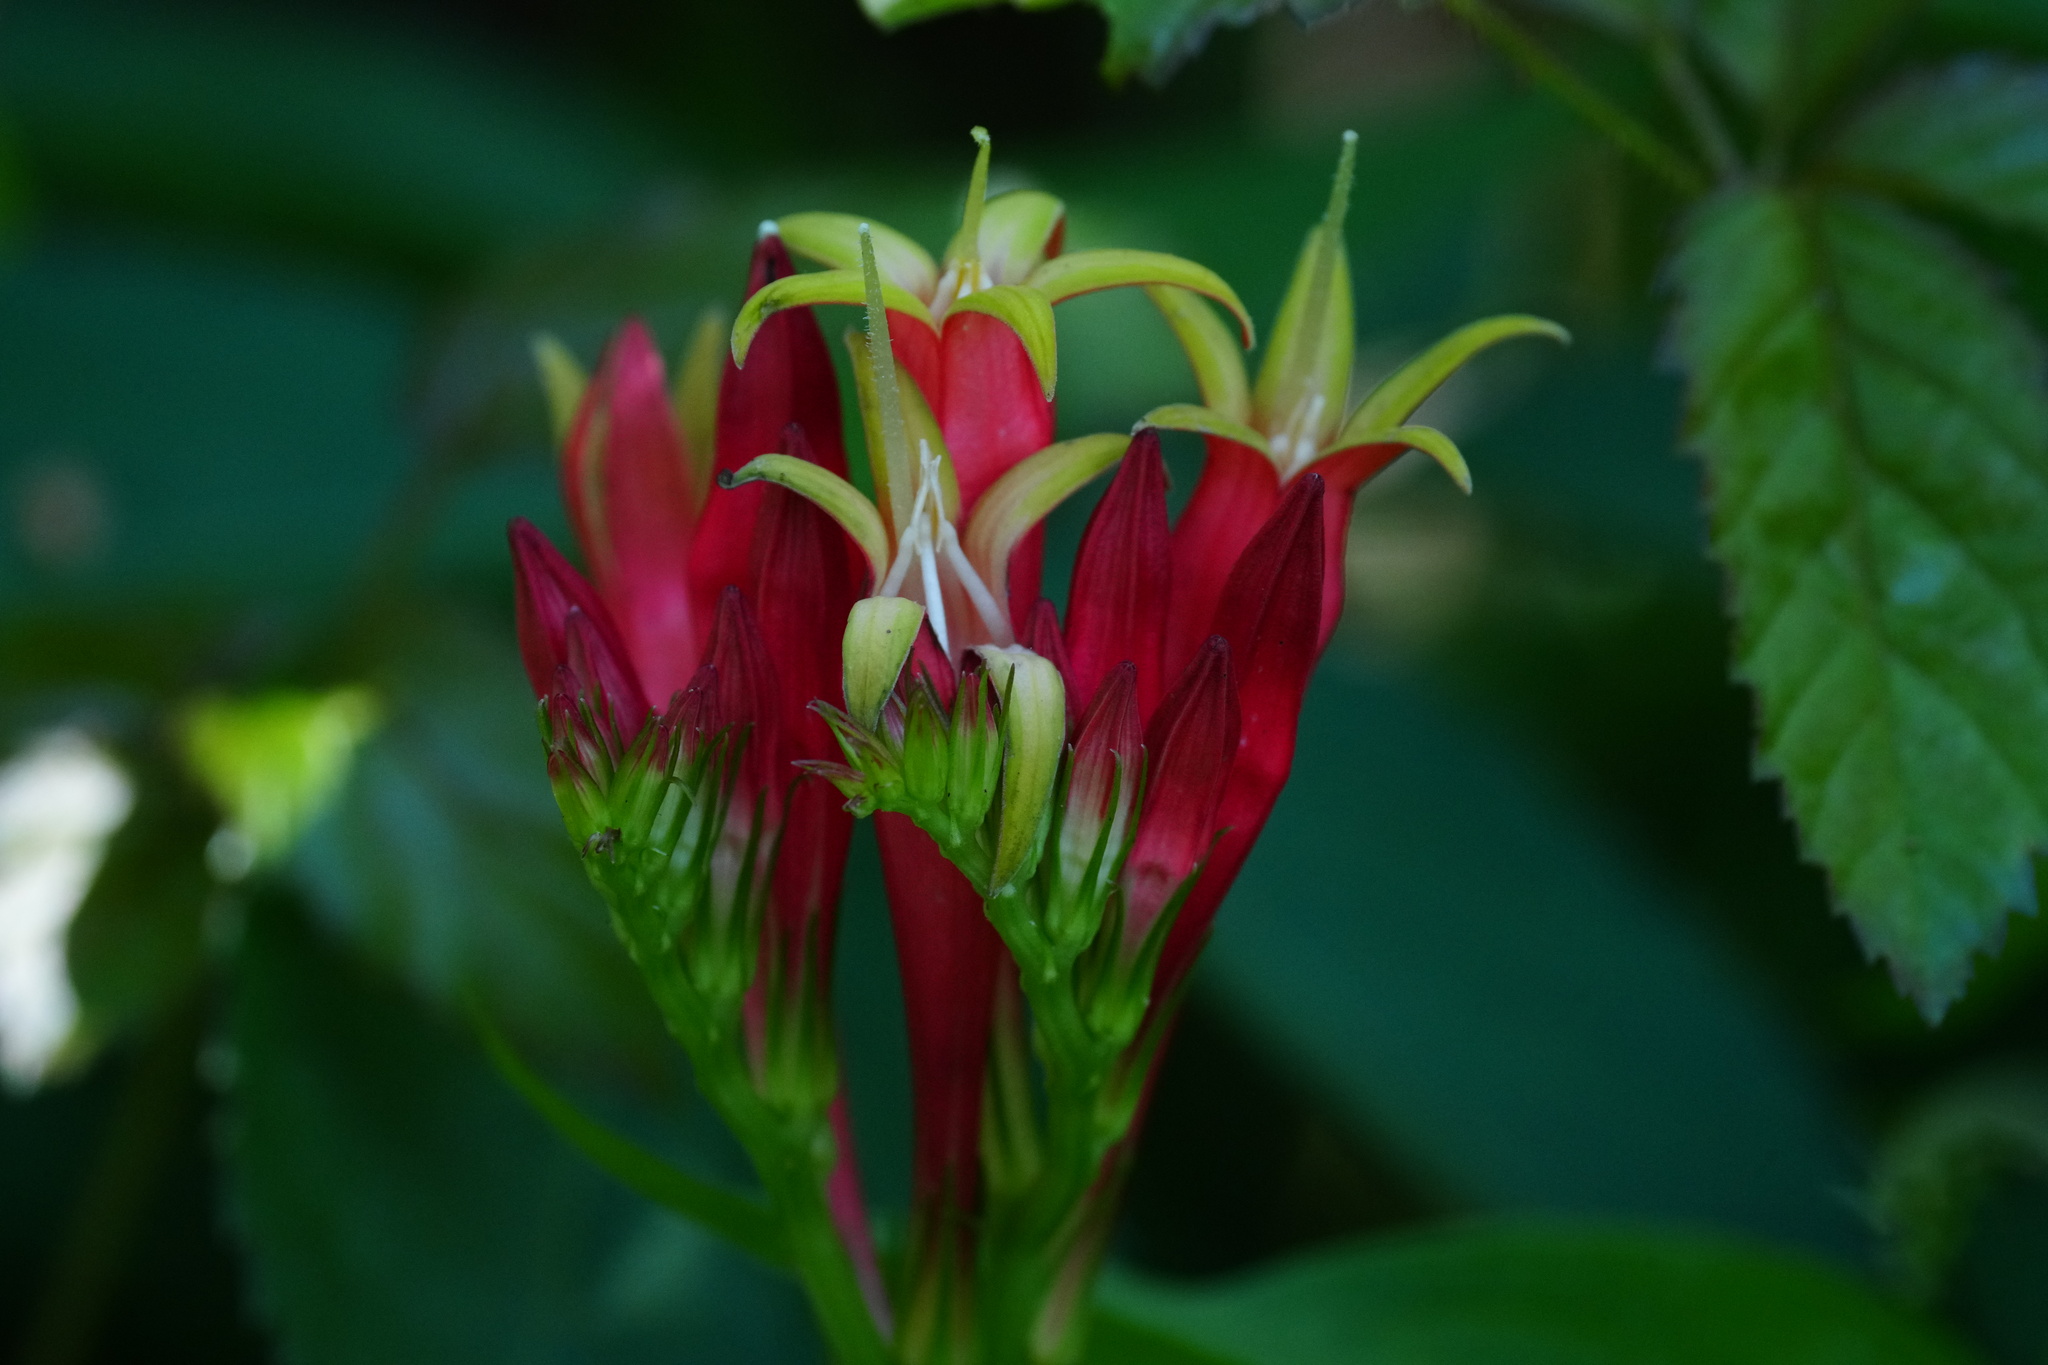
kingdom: Plantae
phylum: Tracheophyta
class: Magnoliopsida
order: Gentianales
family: Loganiaceae
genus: Spigelia
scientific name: Spigelia marilandica
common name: Indian-pink
